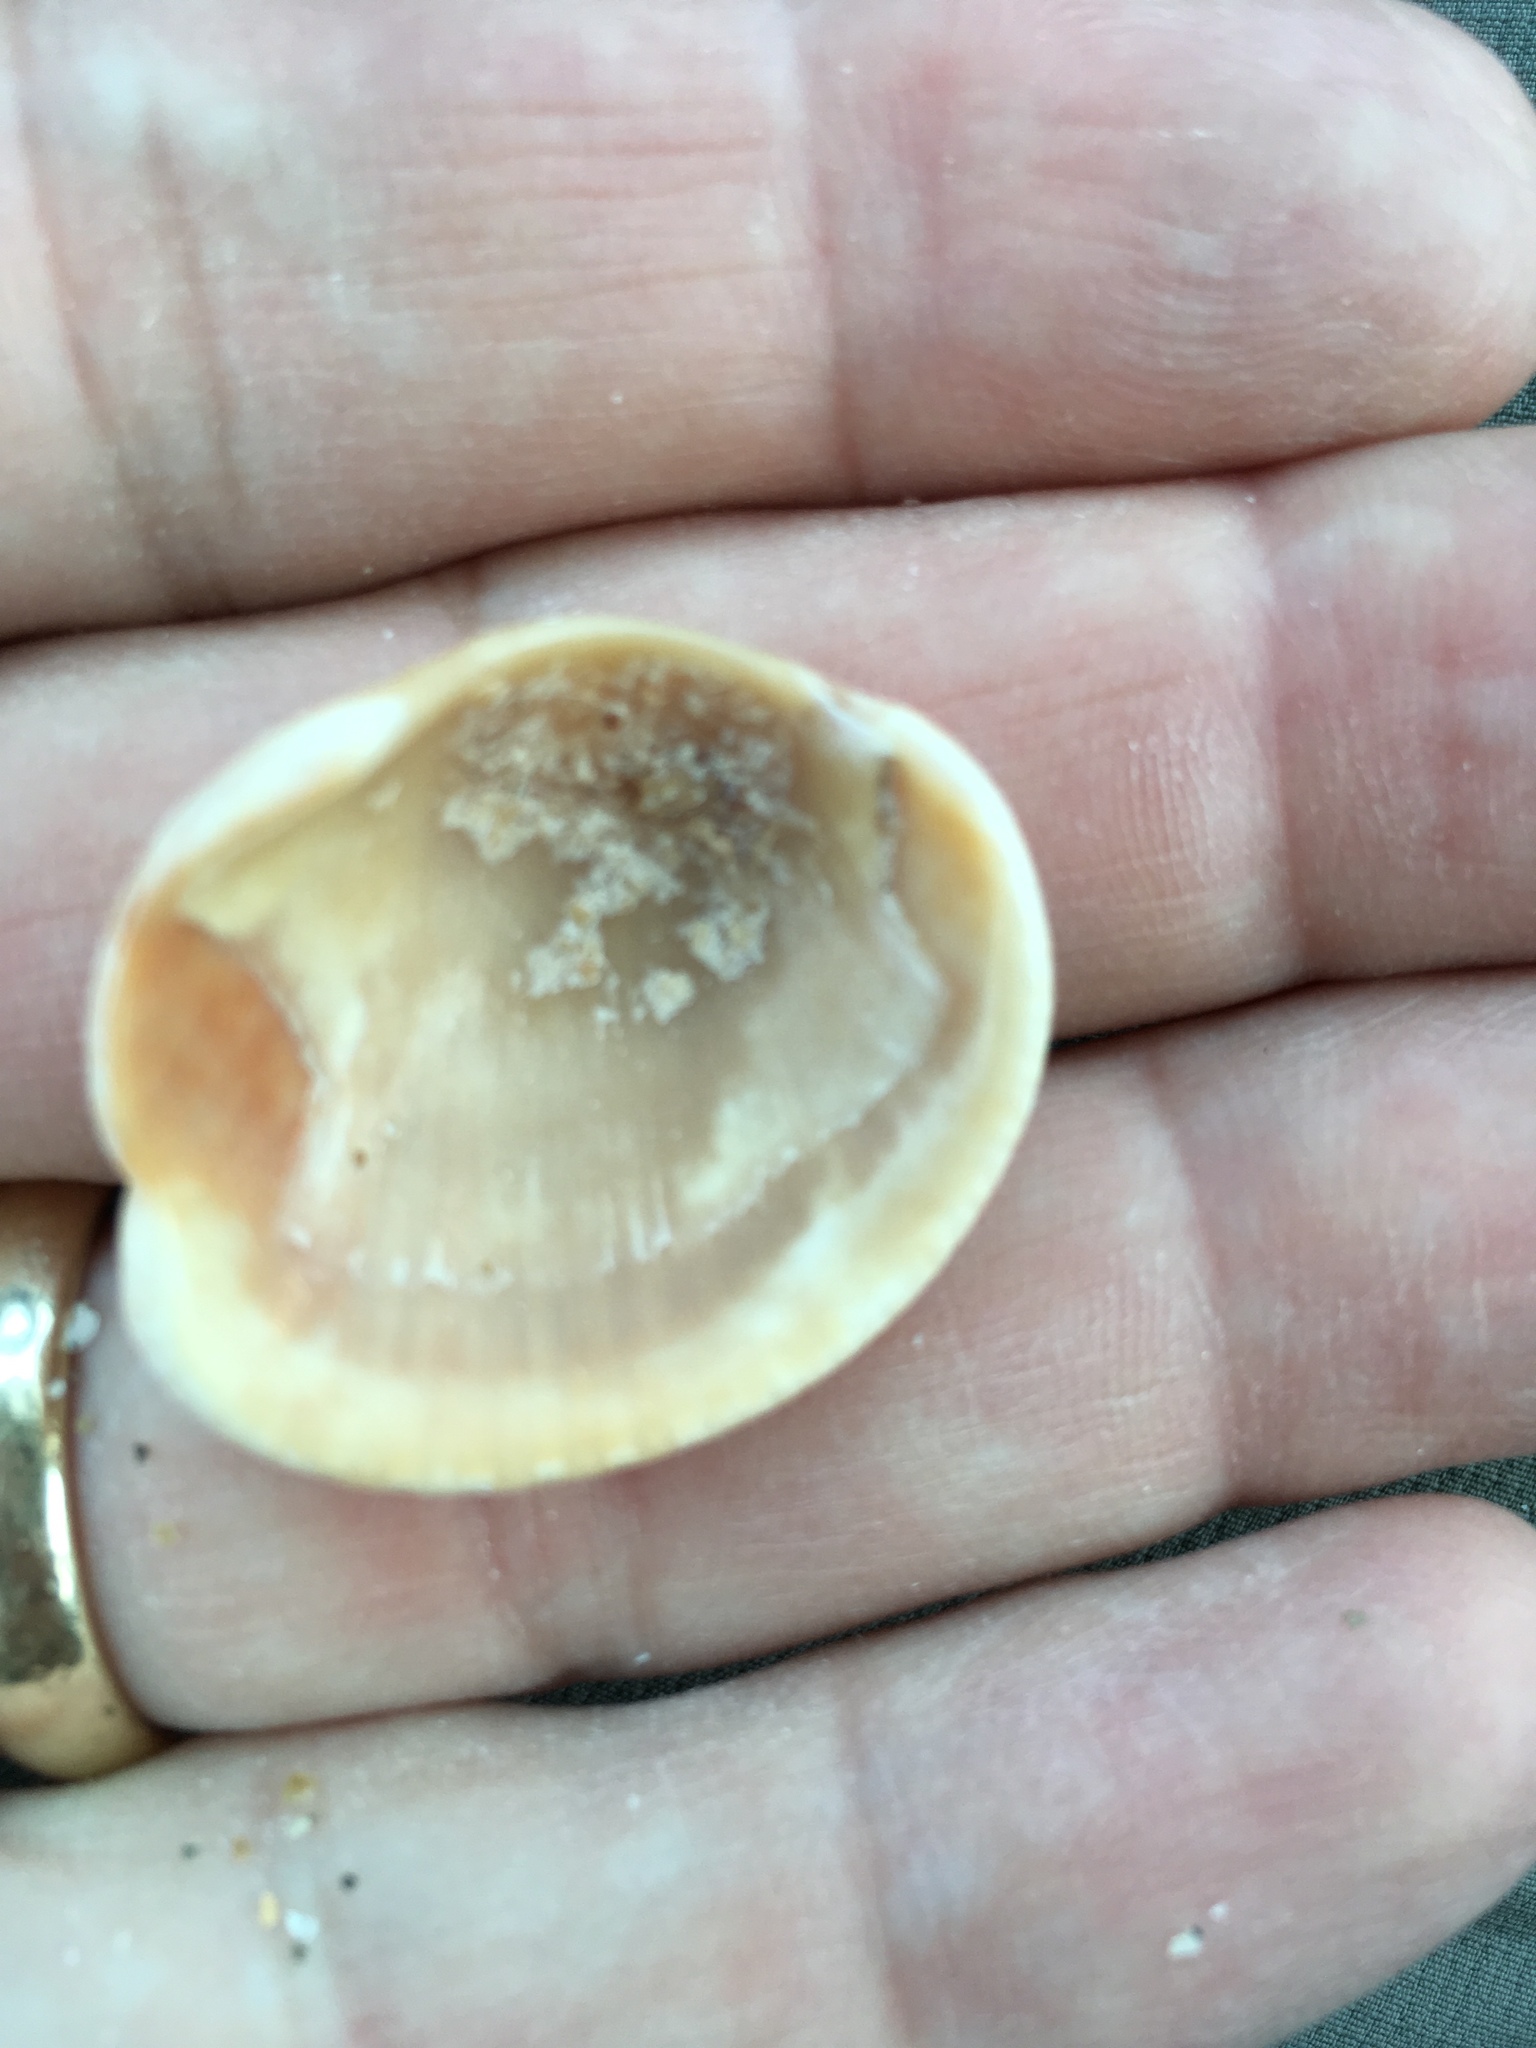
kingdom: Animalia
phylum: Mollusca
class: Bivalvia
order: Arcida
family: Arcidae
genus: Lunarca
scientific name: Lunarca ovalis
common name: Blood ark
